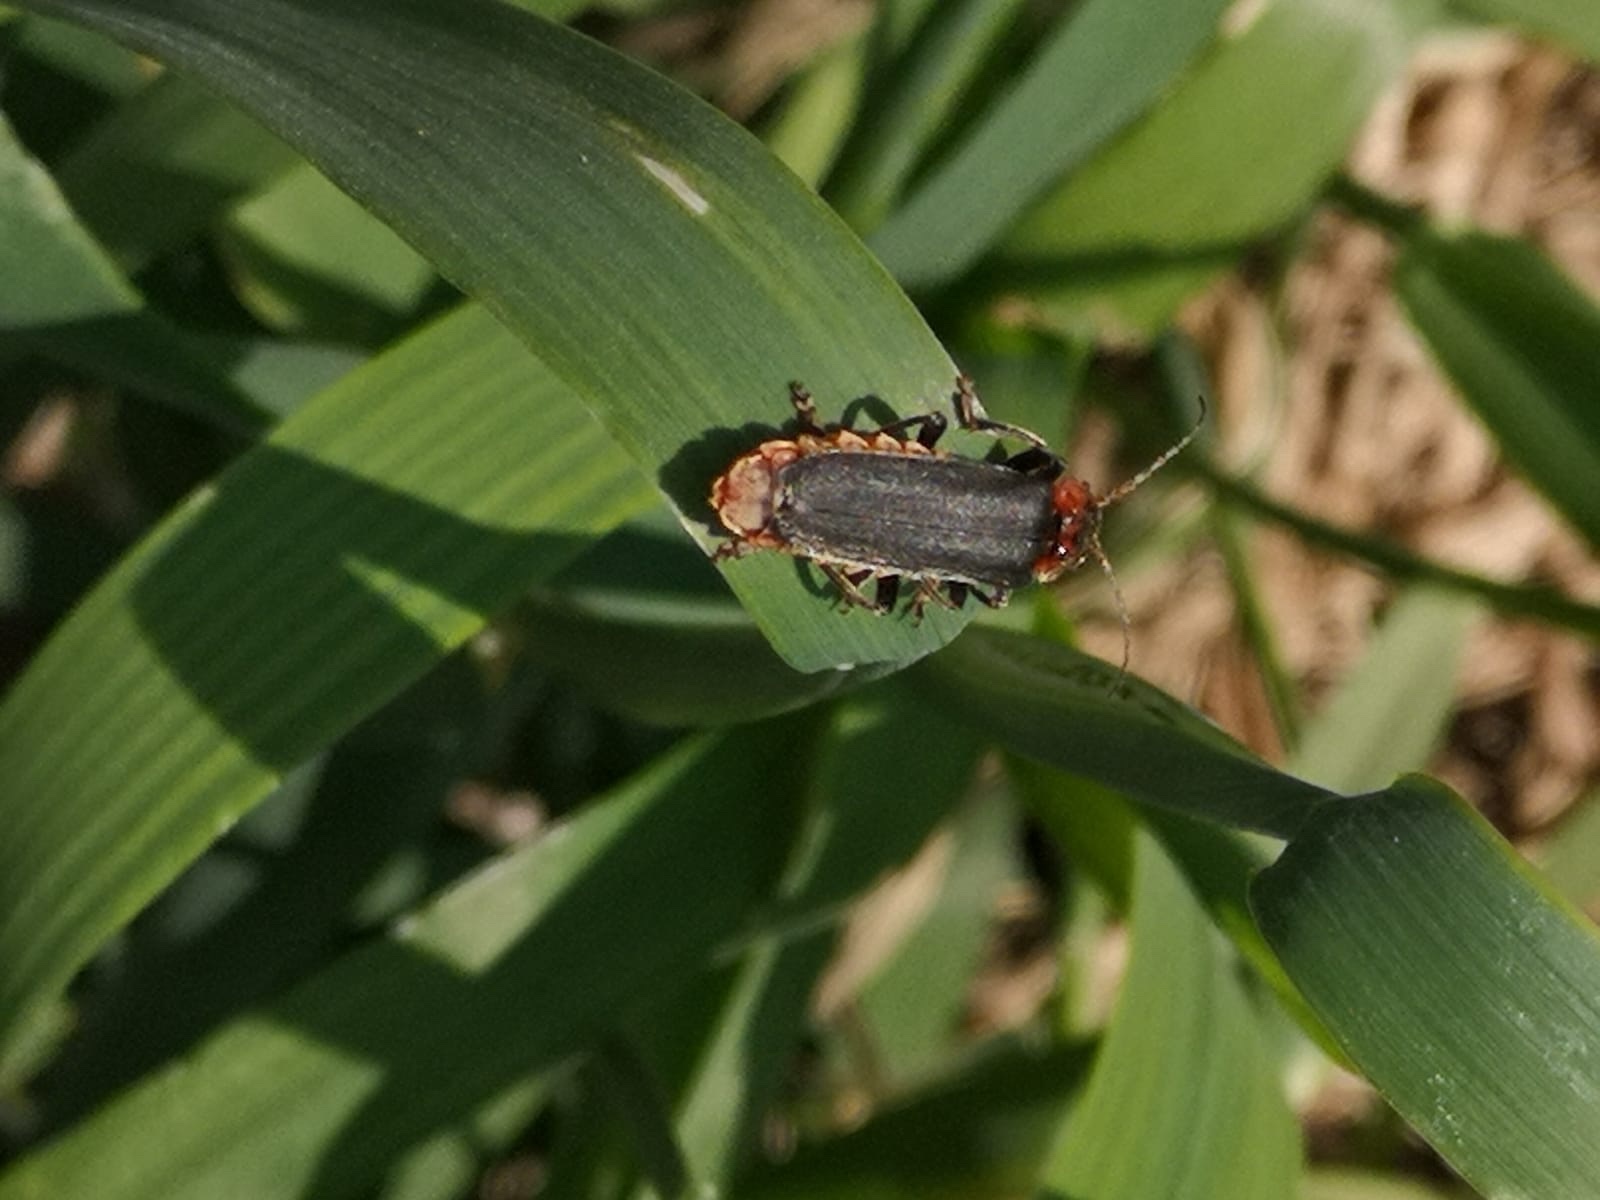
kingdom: Animalia
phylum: Arthropoda
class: Insecta
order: Coleoptera
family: Cantharidae
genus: Cantharis
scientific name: Cantharis fusca
